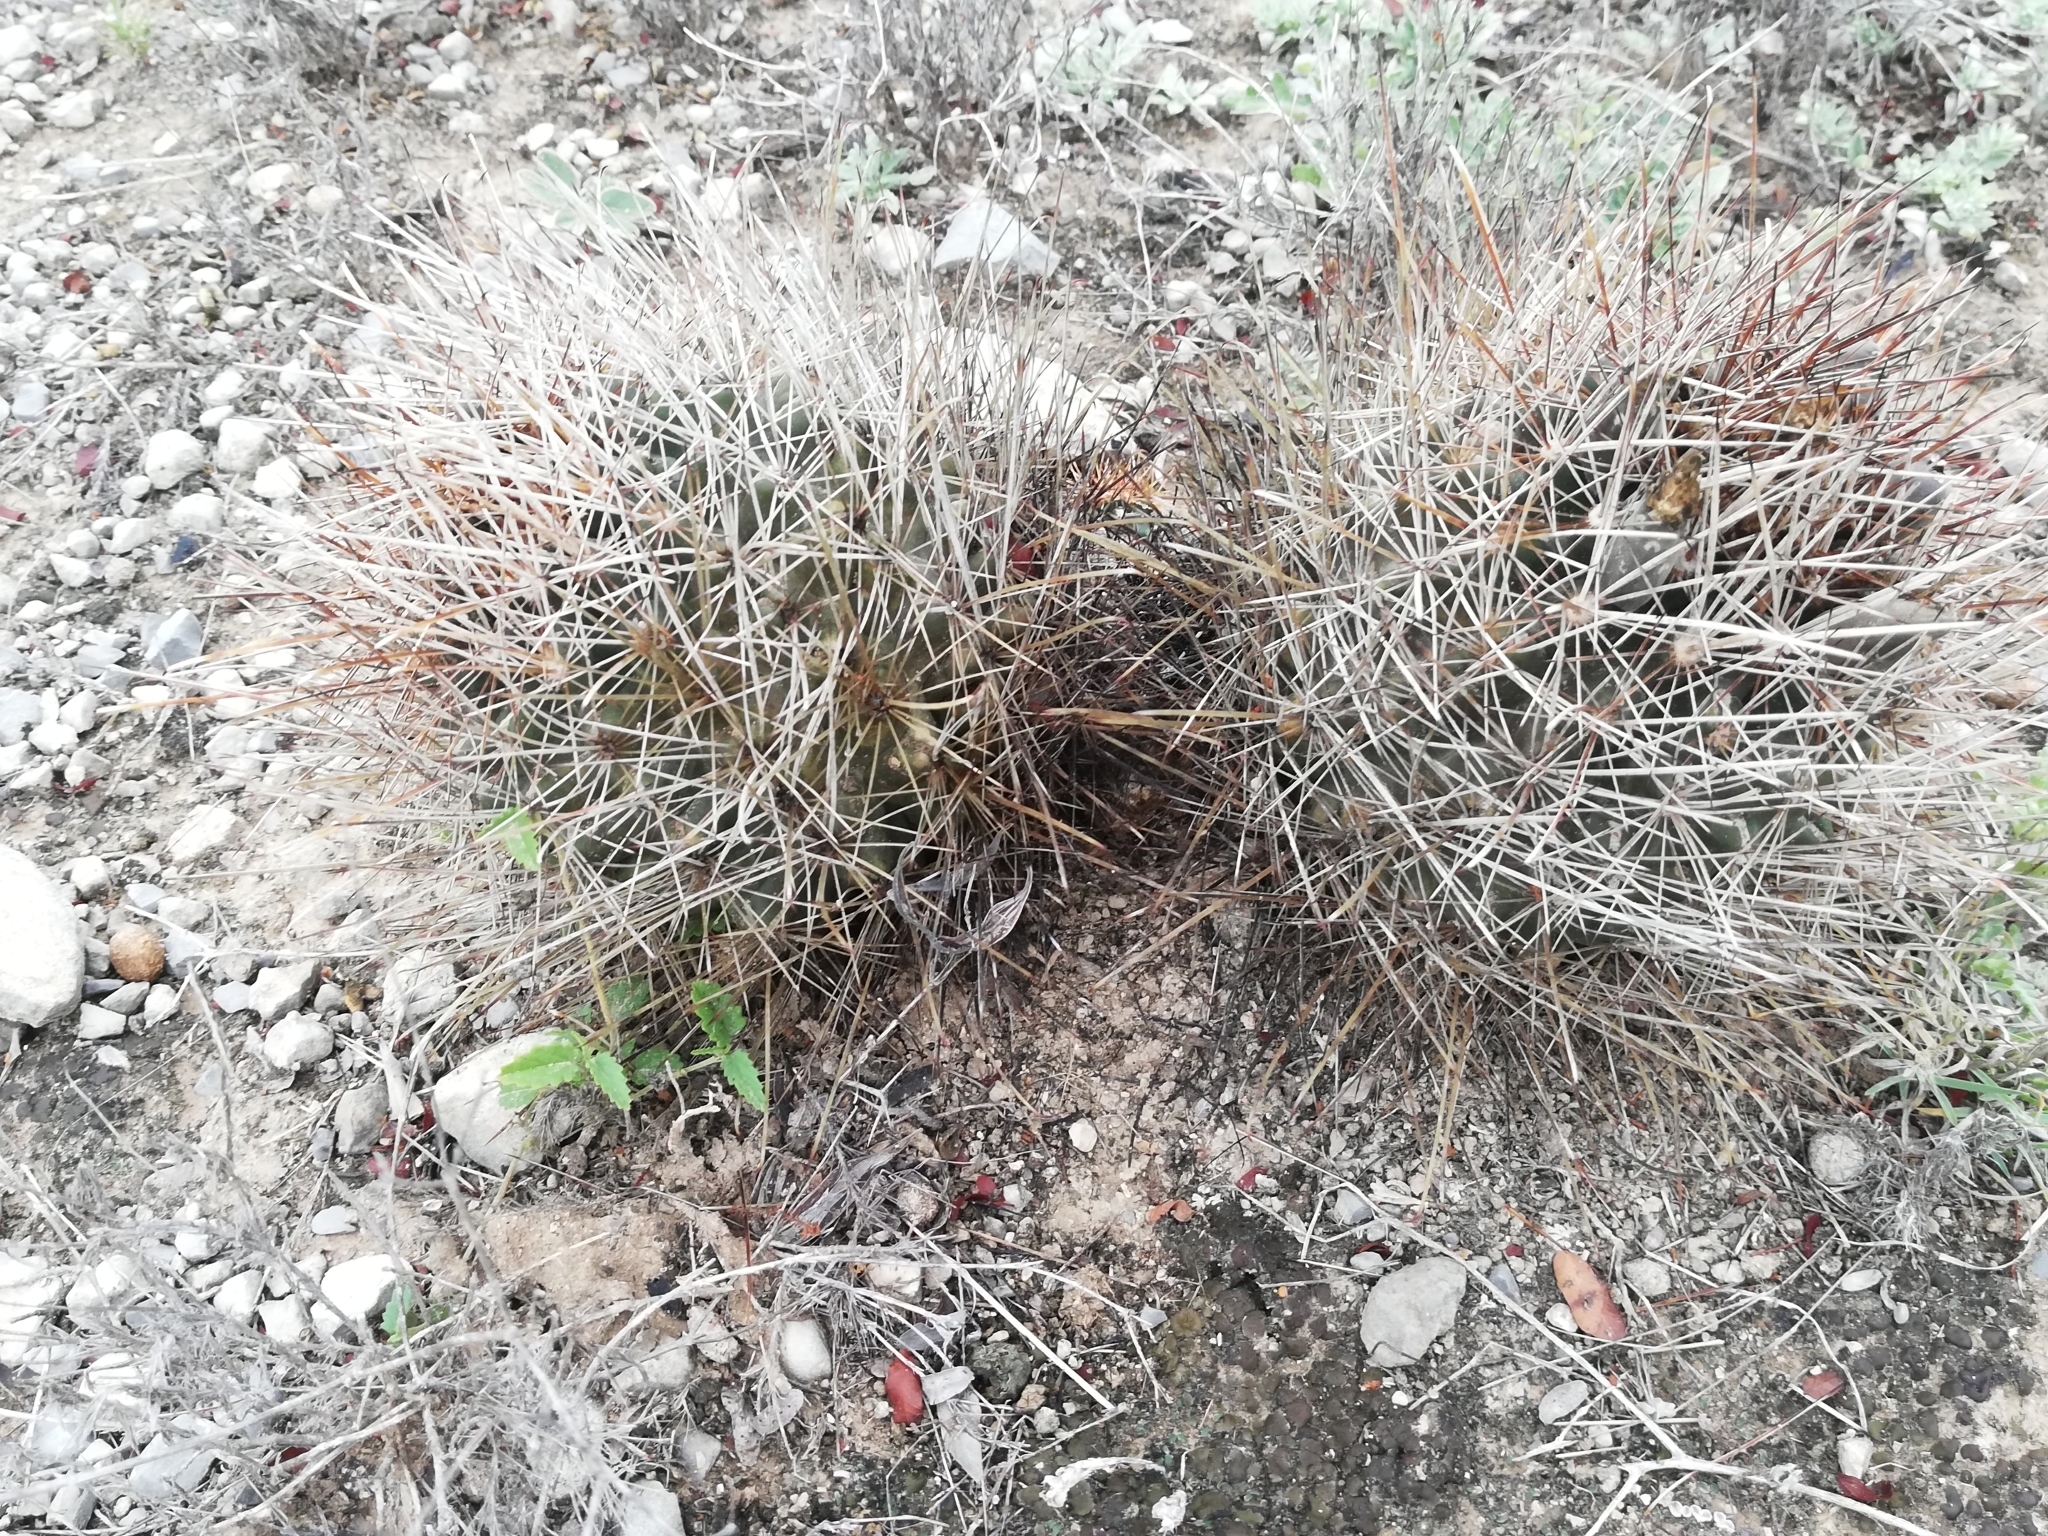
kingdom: Plantae
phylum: Tracheophyta
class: Magnoliopsida
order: Caryophyllales
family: Cactaceae
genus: Sclerocactus
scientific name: Sclerocactus brevihamatus
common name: Engelmann's fishhook cactus
